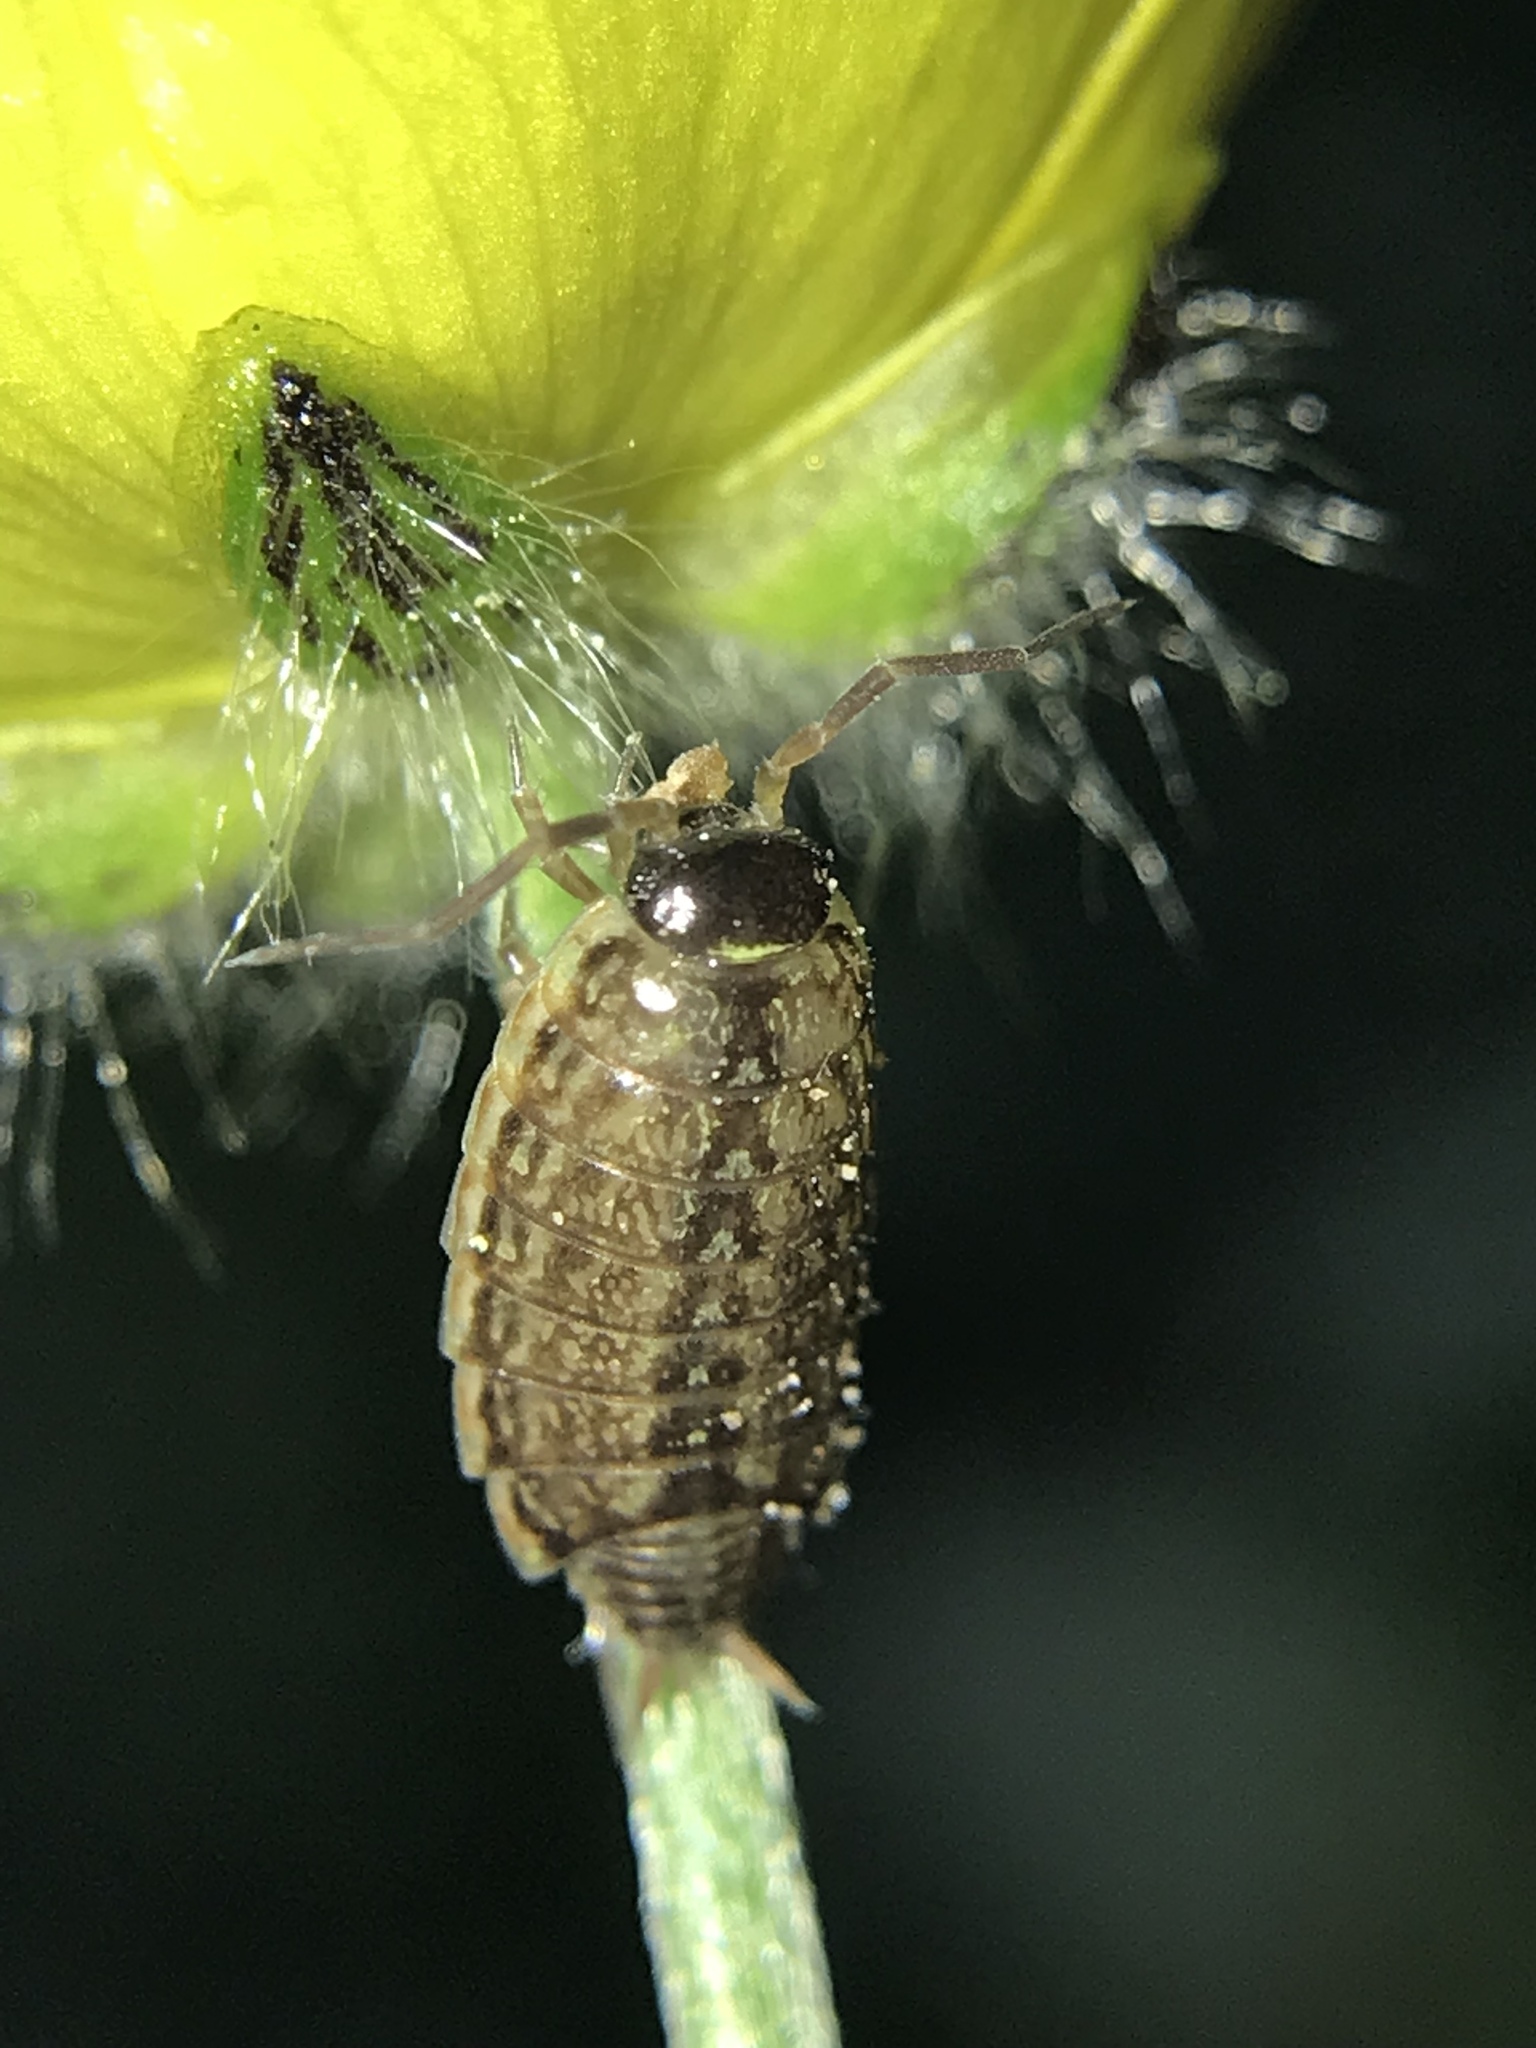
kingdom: Animalia
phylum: Arthropoda
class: Malacostraca
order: Isopoda
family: Philosciidae
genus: Philoscia
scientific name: Philoscia muscorum
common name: Common striped woodlouse
